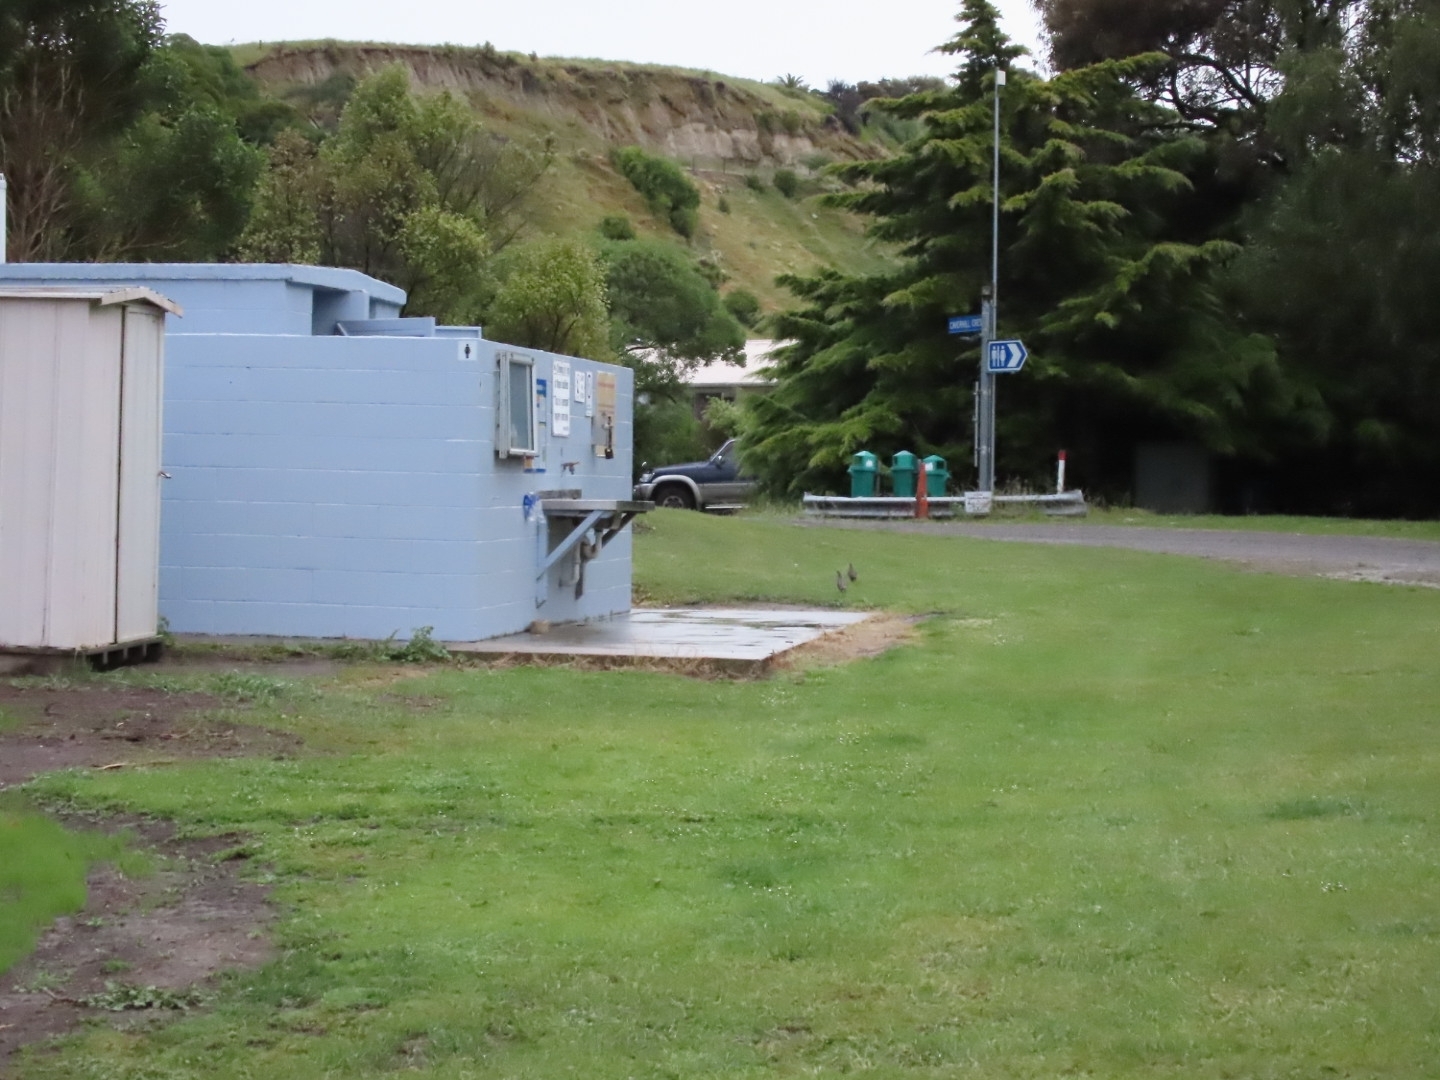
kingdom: Animalia
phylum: Chordata
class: Aves
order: Galliformes
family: Odontophoridae
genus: Callipepla
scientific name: Callipepla californica
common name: California quail
